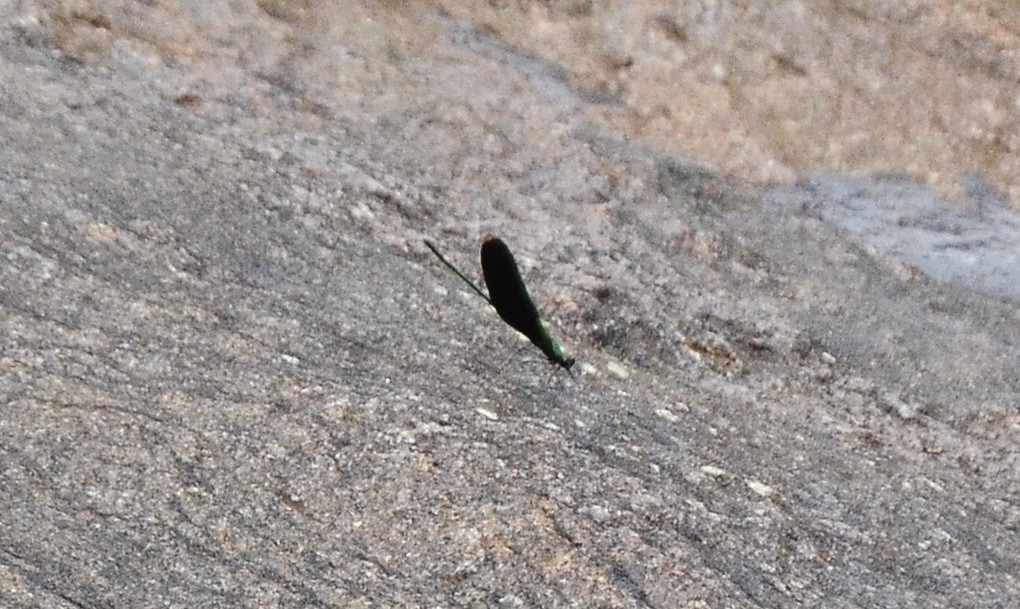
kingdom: Animalia
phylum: Arthropoda
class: Insecta
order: Odonata
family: Calopterygidae
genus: Neurobasis
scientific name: Neurobasis chinensis
